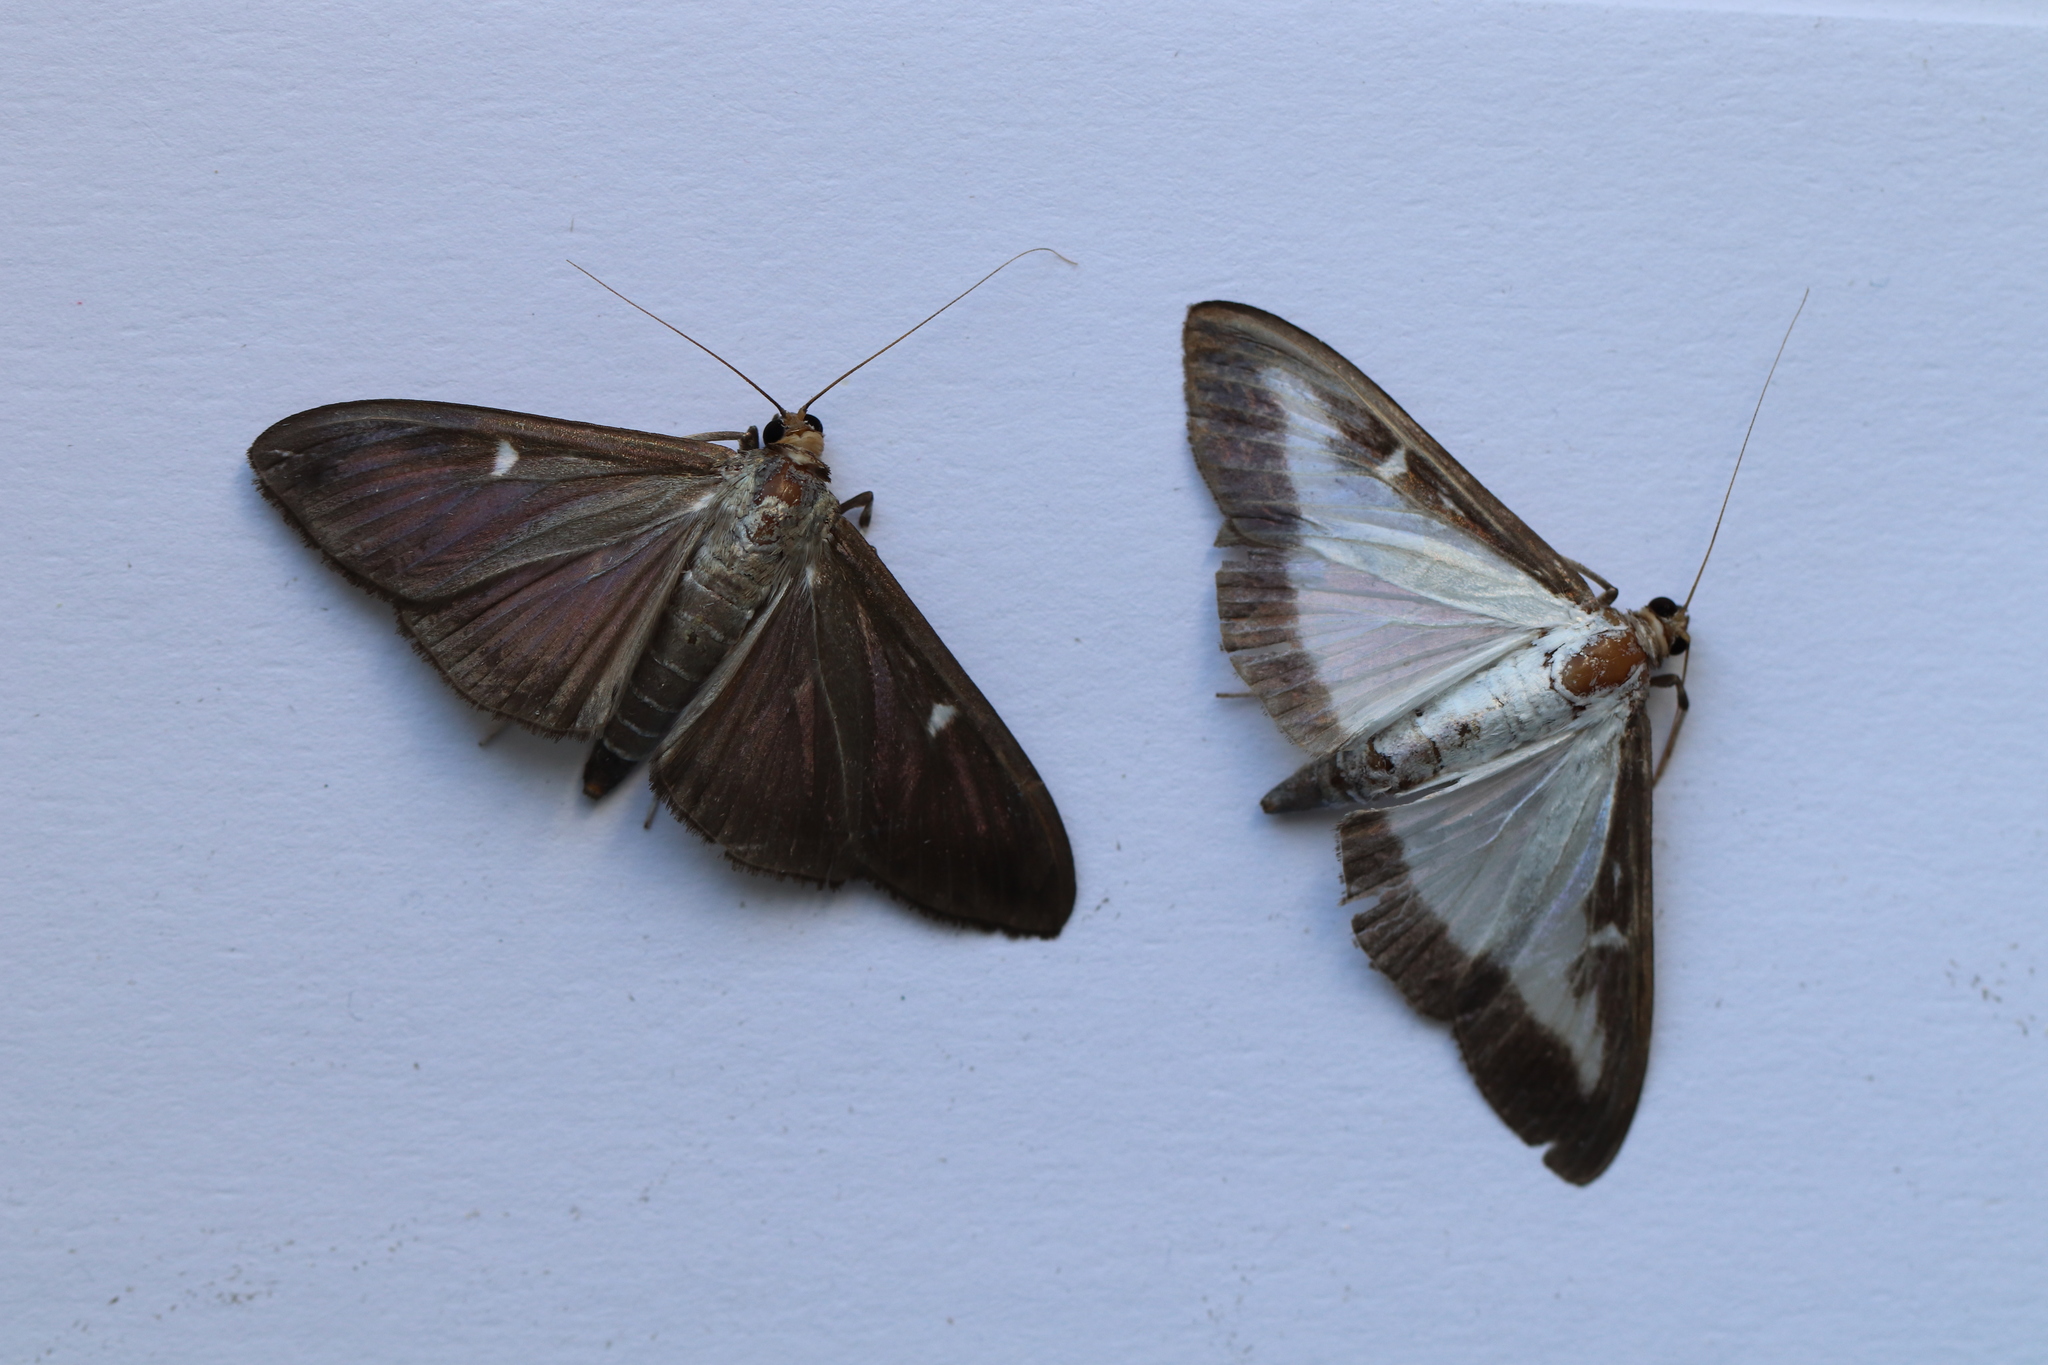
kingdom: Animalia
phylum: Arthropoda
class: Insecta
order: Lepidoptera
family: Crambidae
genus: Cydalima
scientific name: Cydalima perspectalis
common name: Box tree moth
